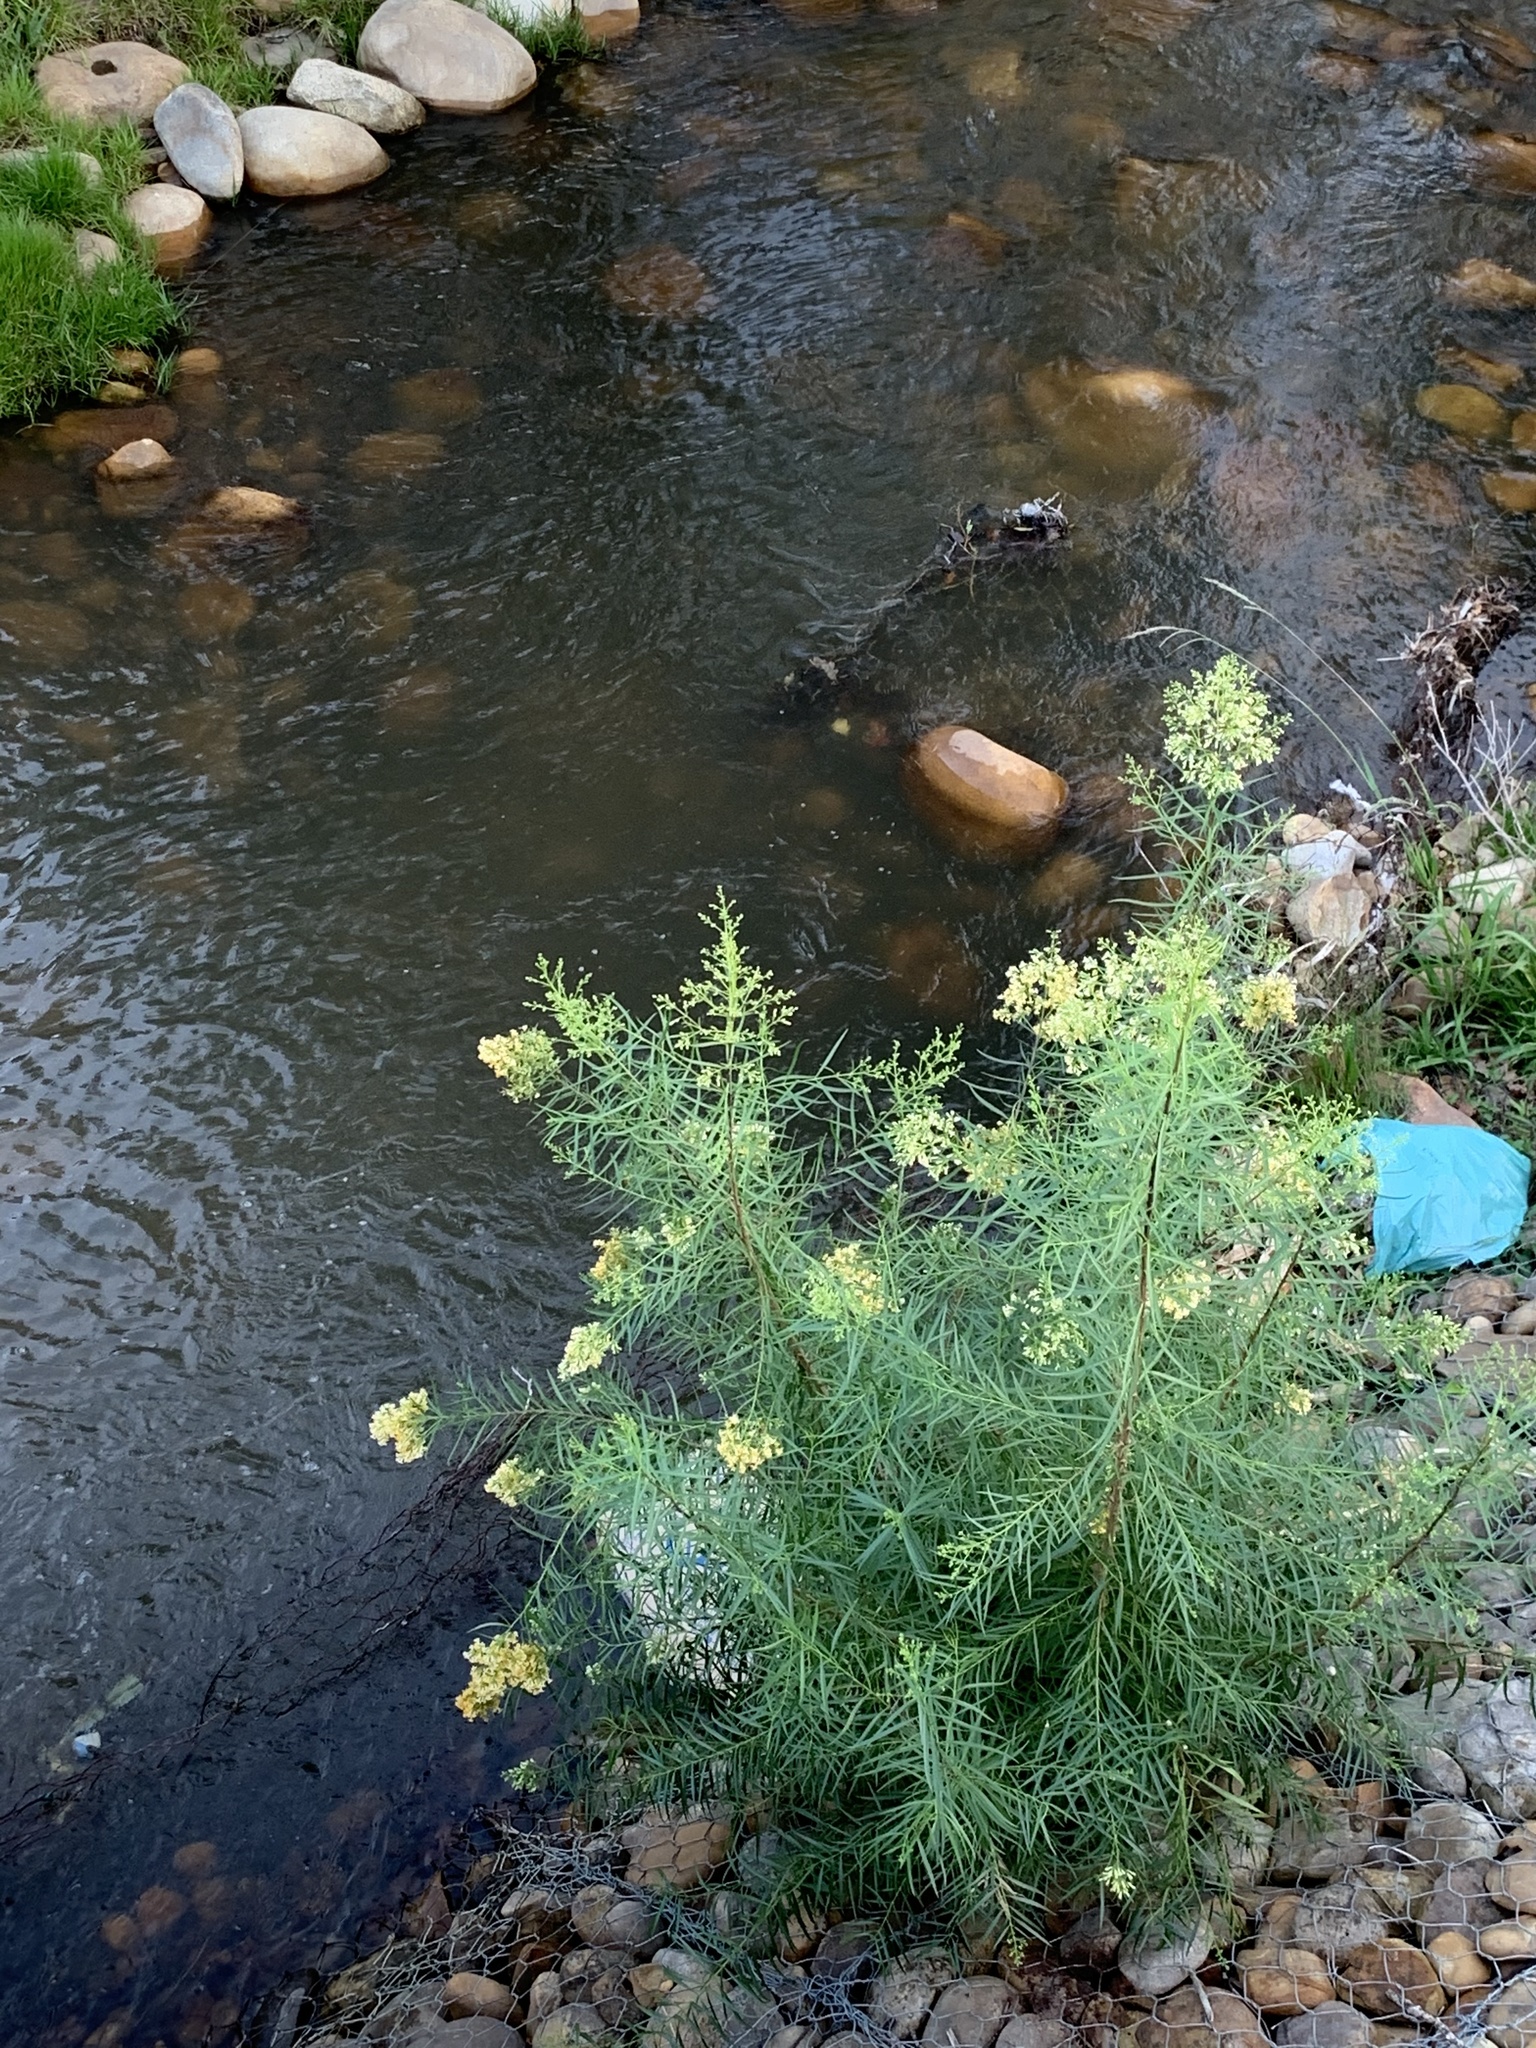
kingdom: Plantae
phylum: Tracheophyta
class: Magnoliopsida
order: Lamiales
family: Scrophulariaceae
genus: Freylinia
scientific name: Freylinia lanceolata
